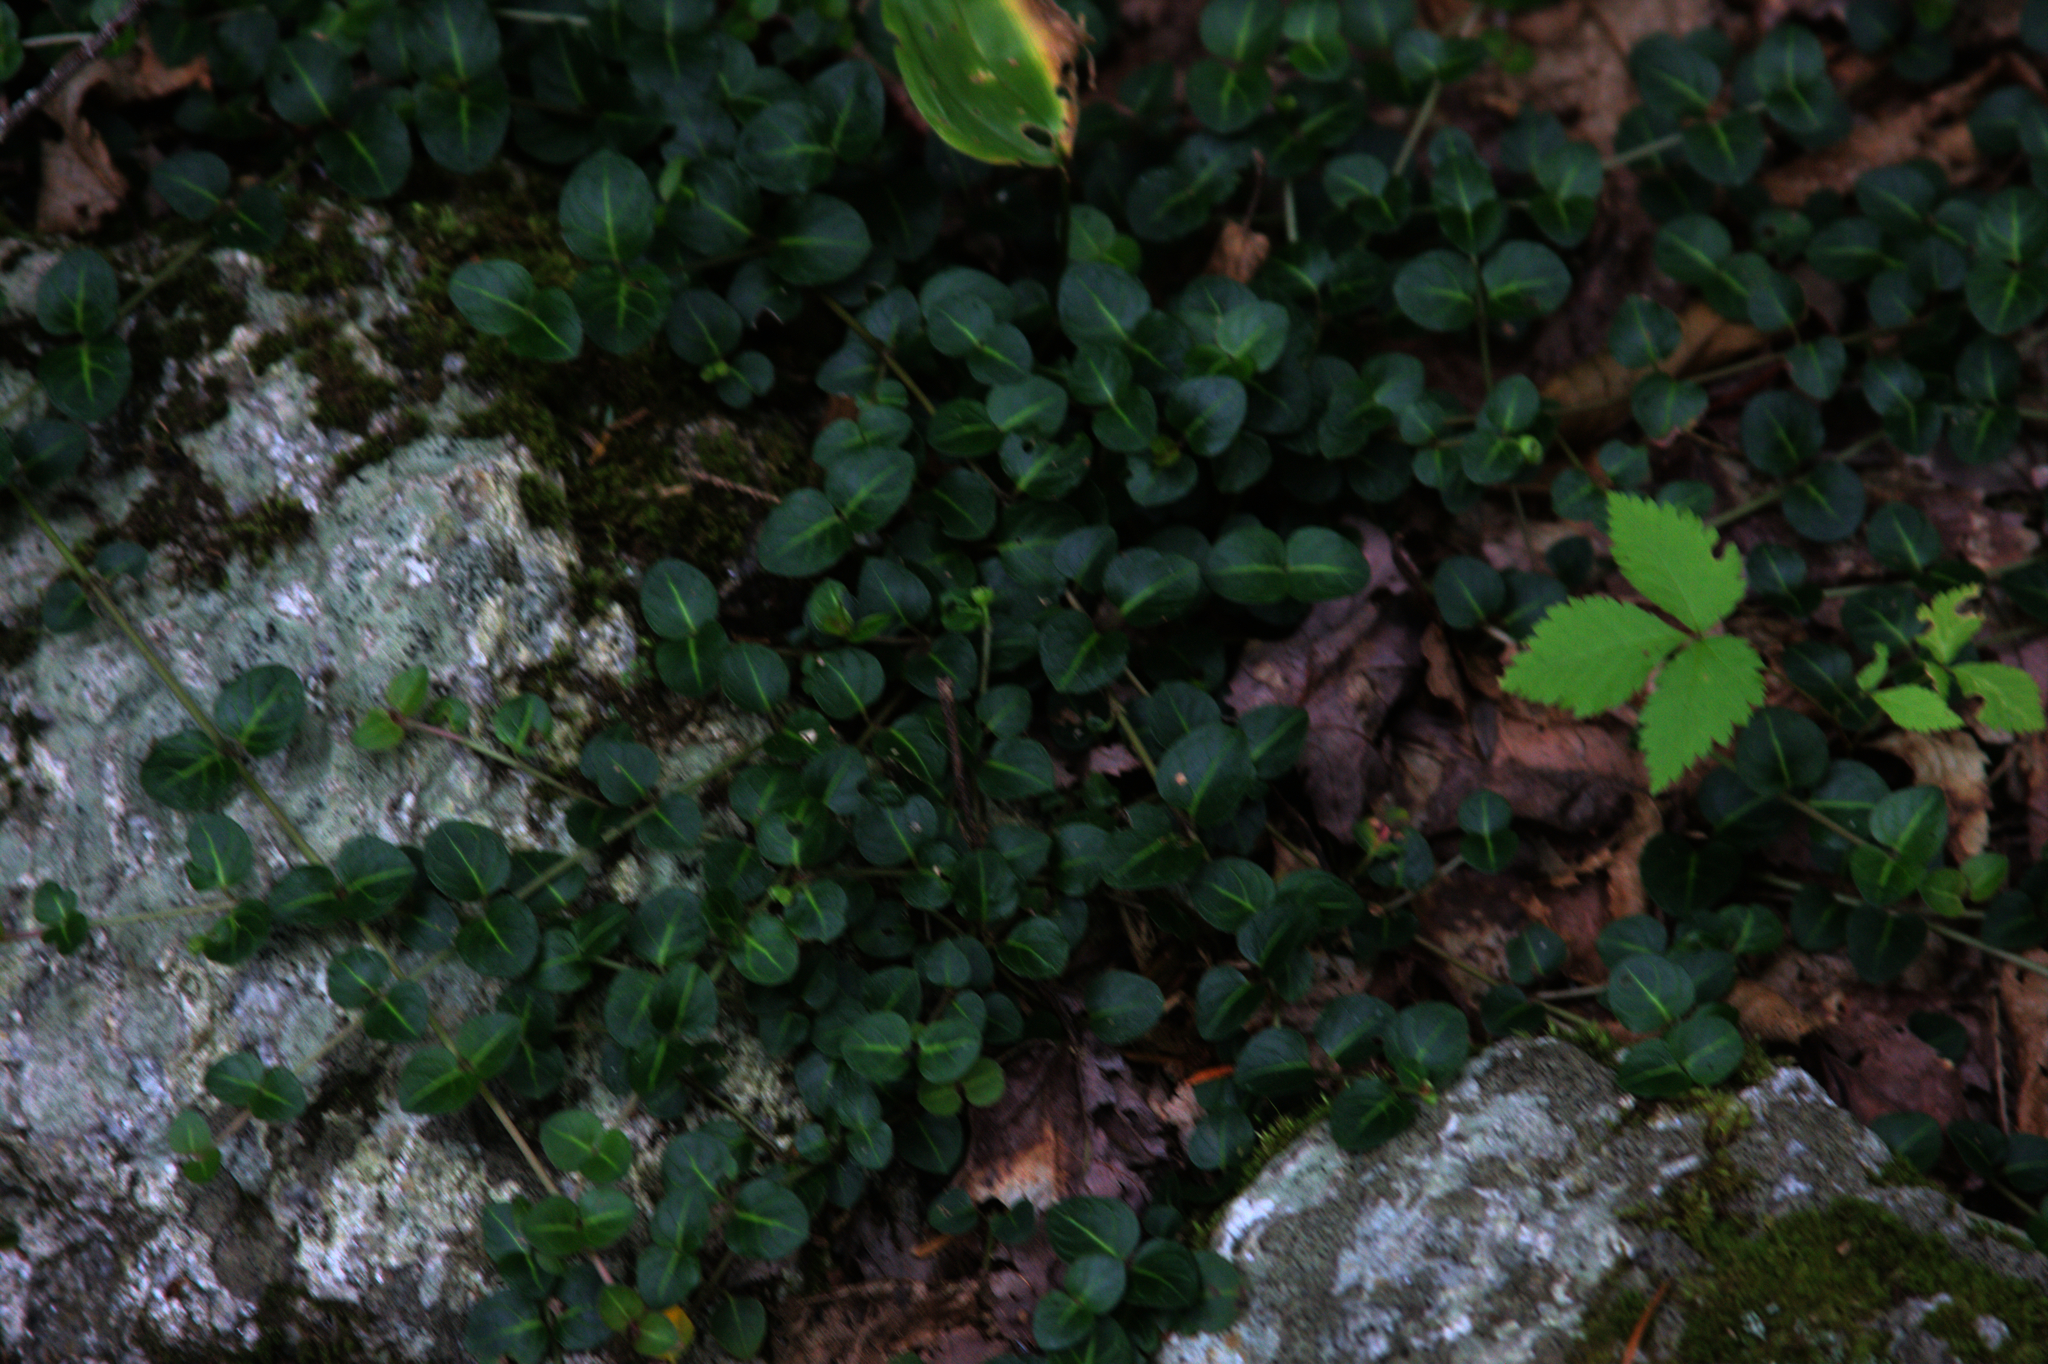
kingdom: Plantae
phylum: Tracheophyta
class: Magnoliopsida
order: Gentianales
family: Rubiaceae
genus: Mitchella
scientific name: Mitchella repens
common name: Partridge-berry
